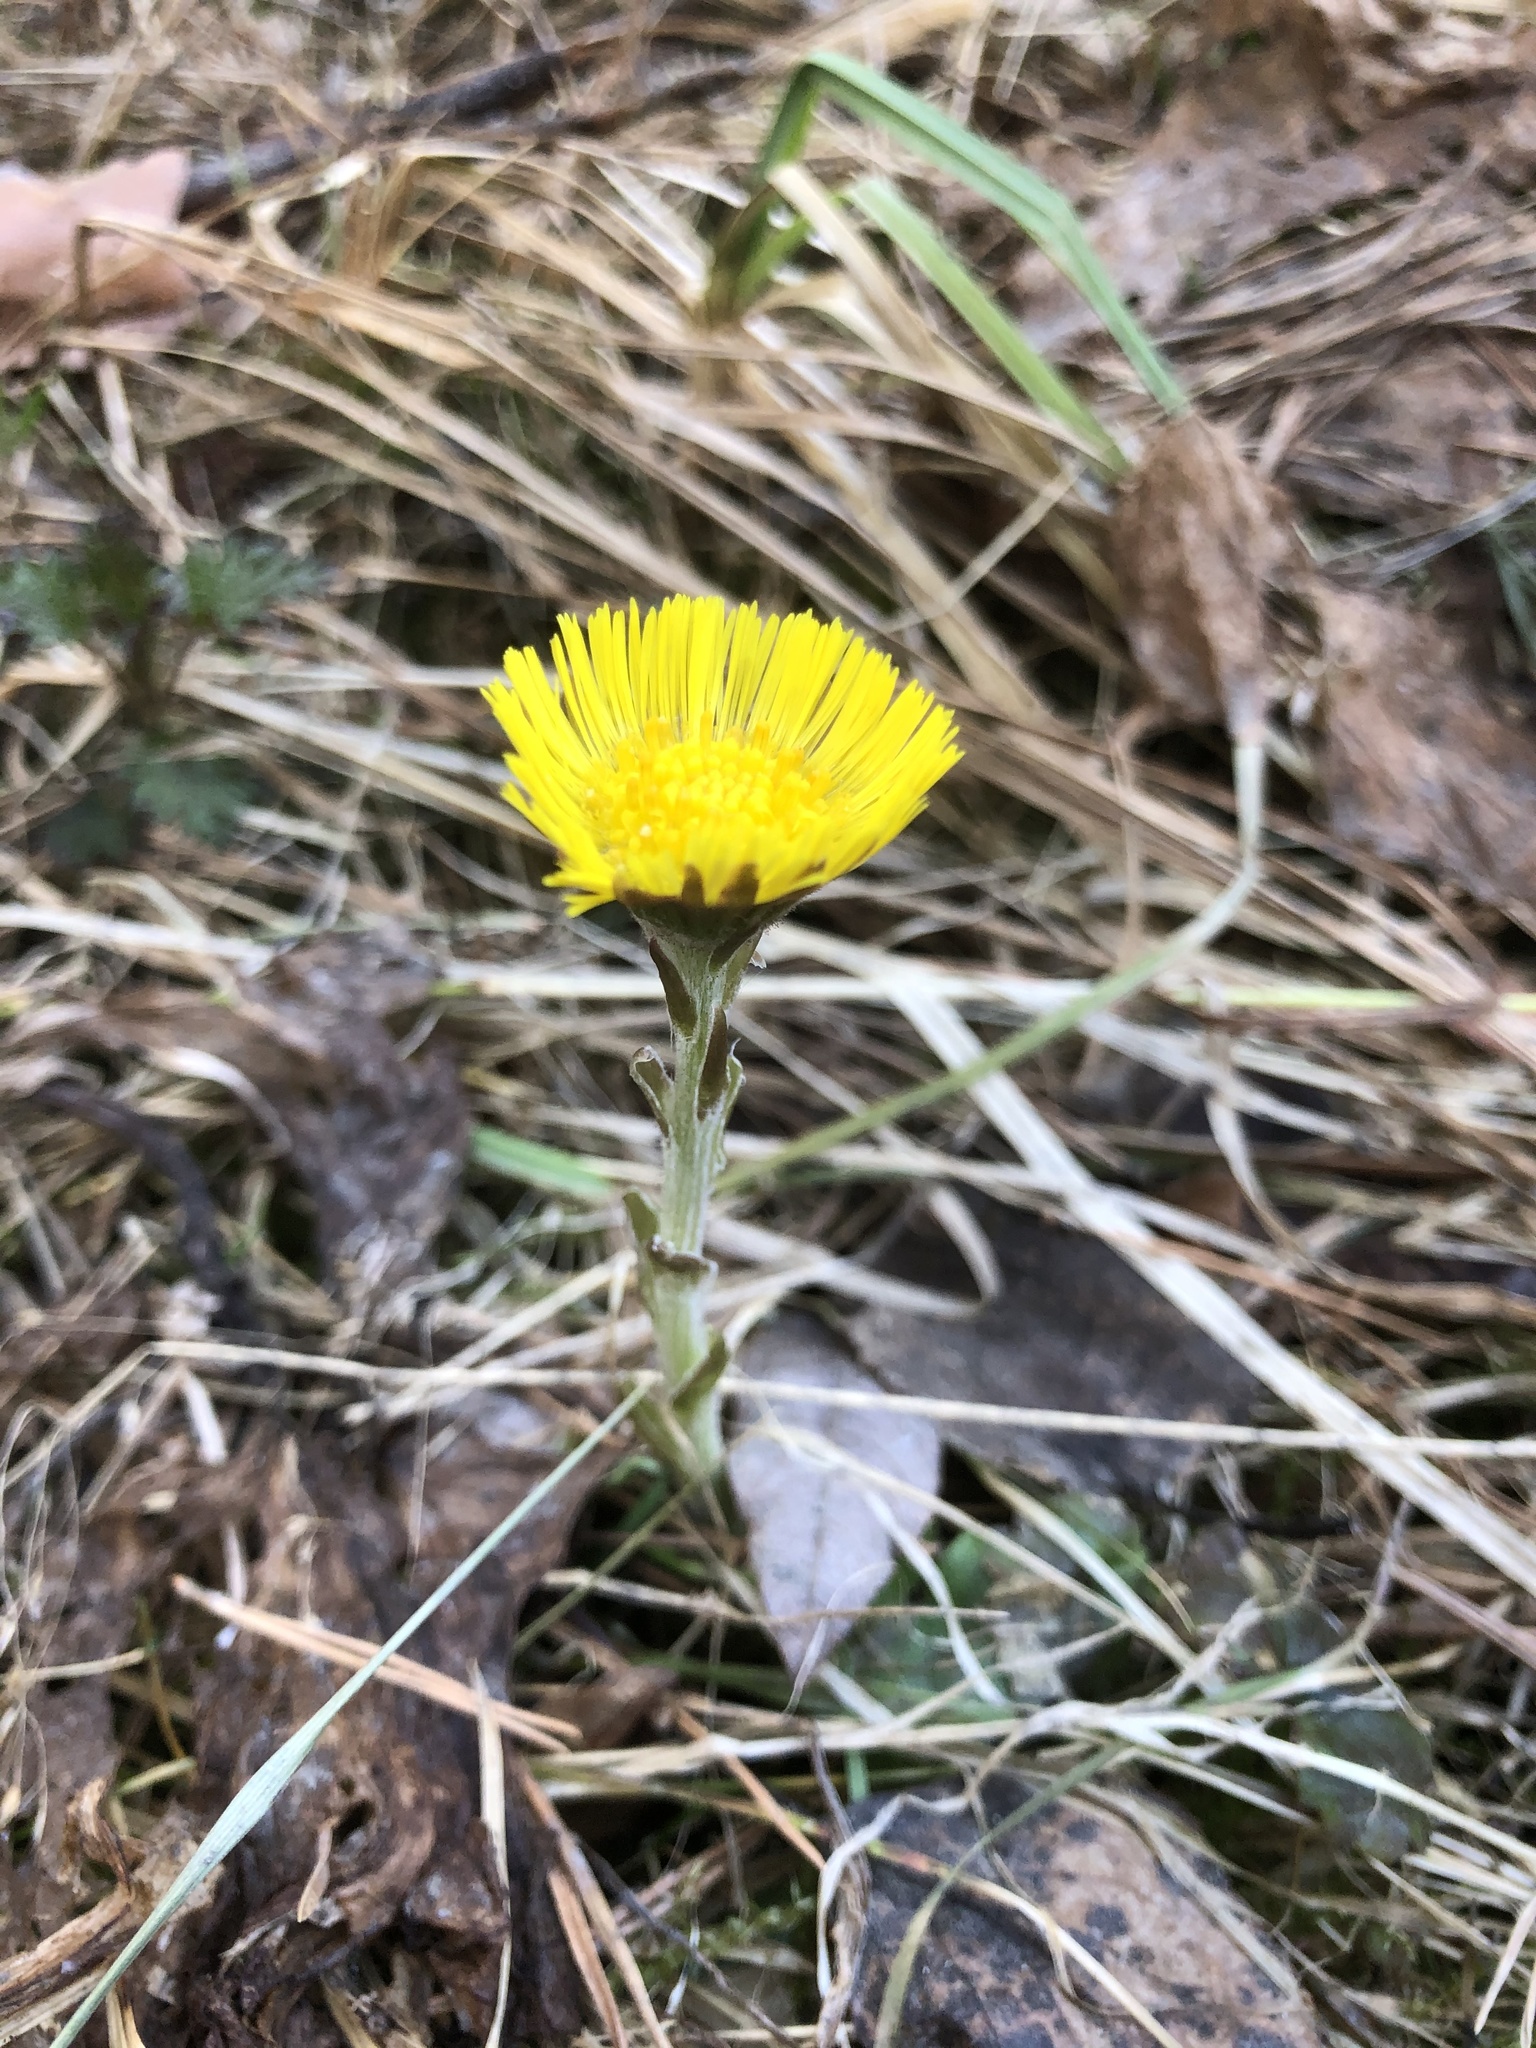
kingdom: Plantae
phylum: Tracheophyta
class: Magnoliopsida
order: Asterales
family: Asteraceae
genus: Tussilago
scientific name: Tussilago farfara
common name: Coltsfoot
